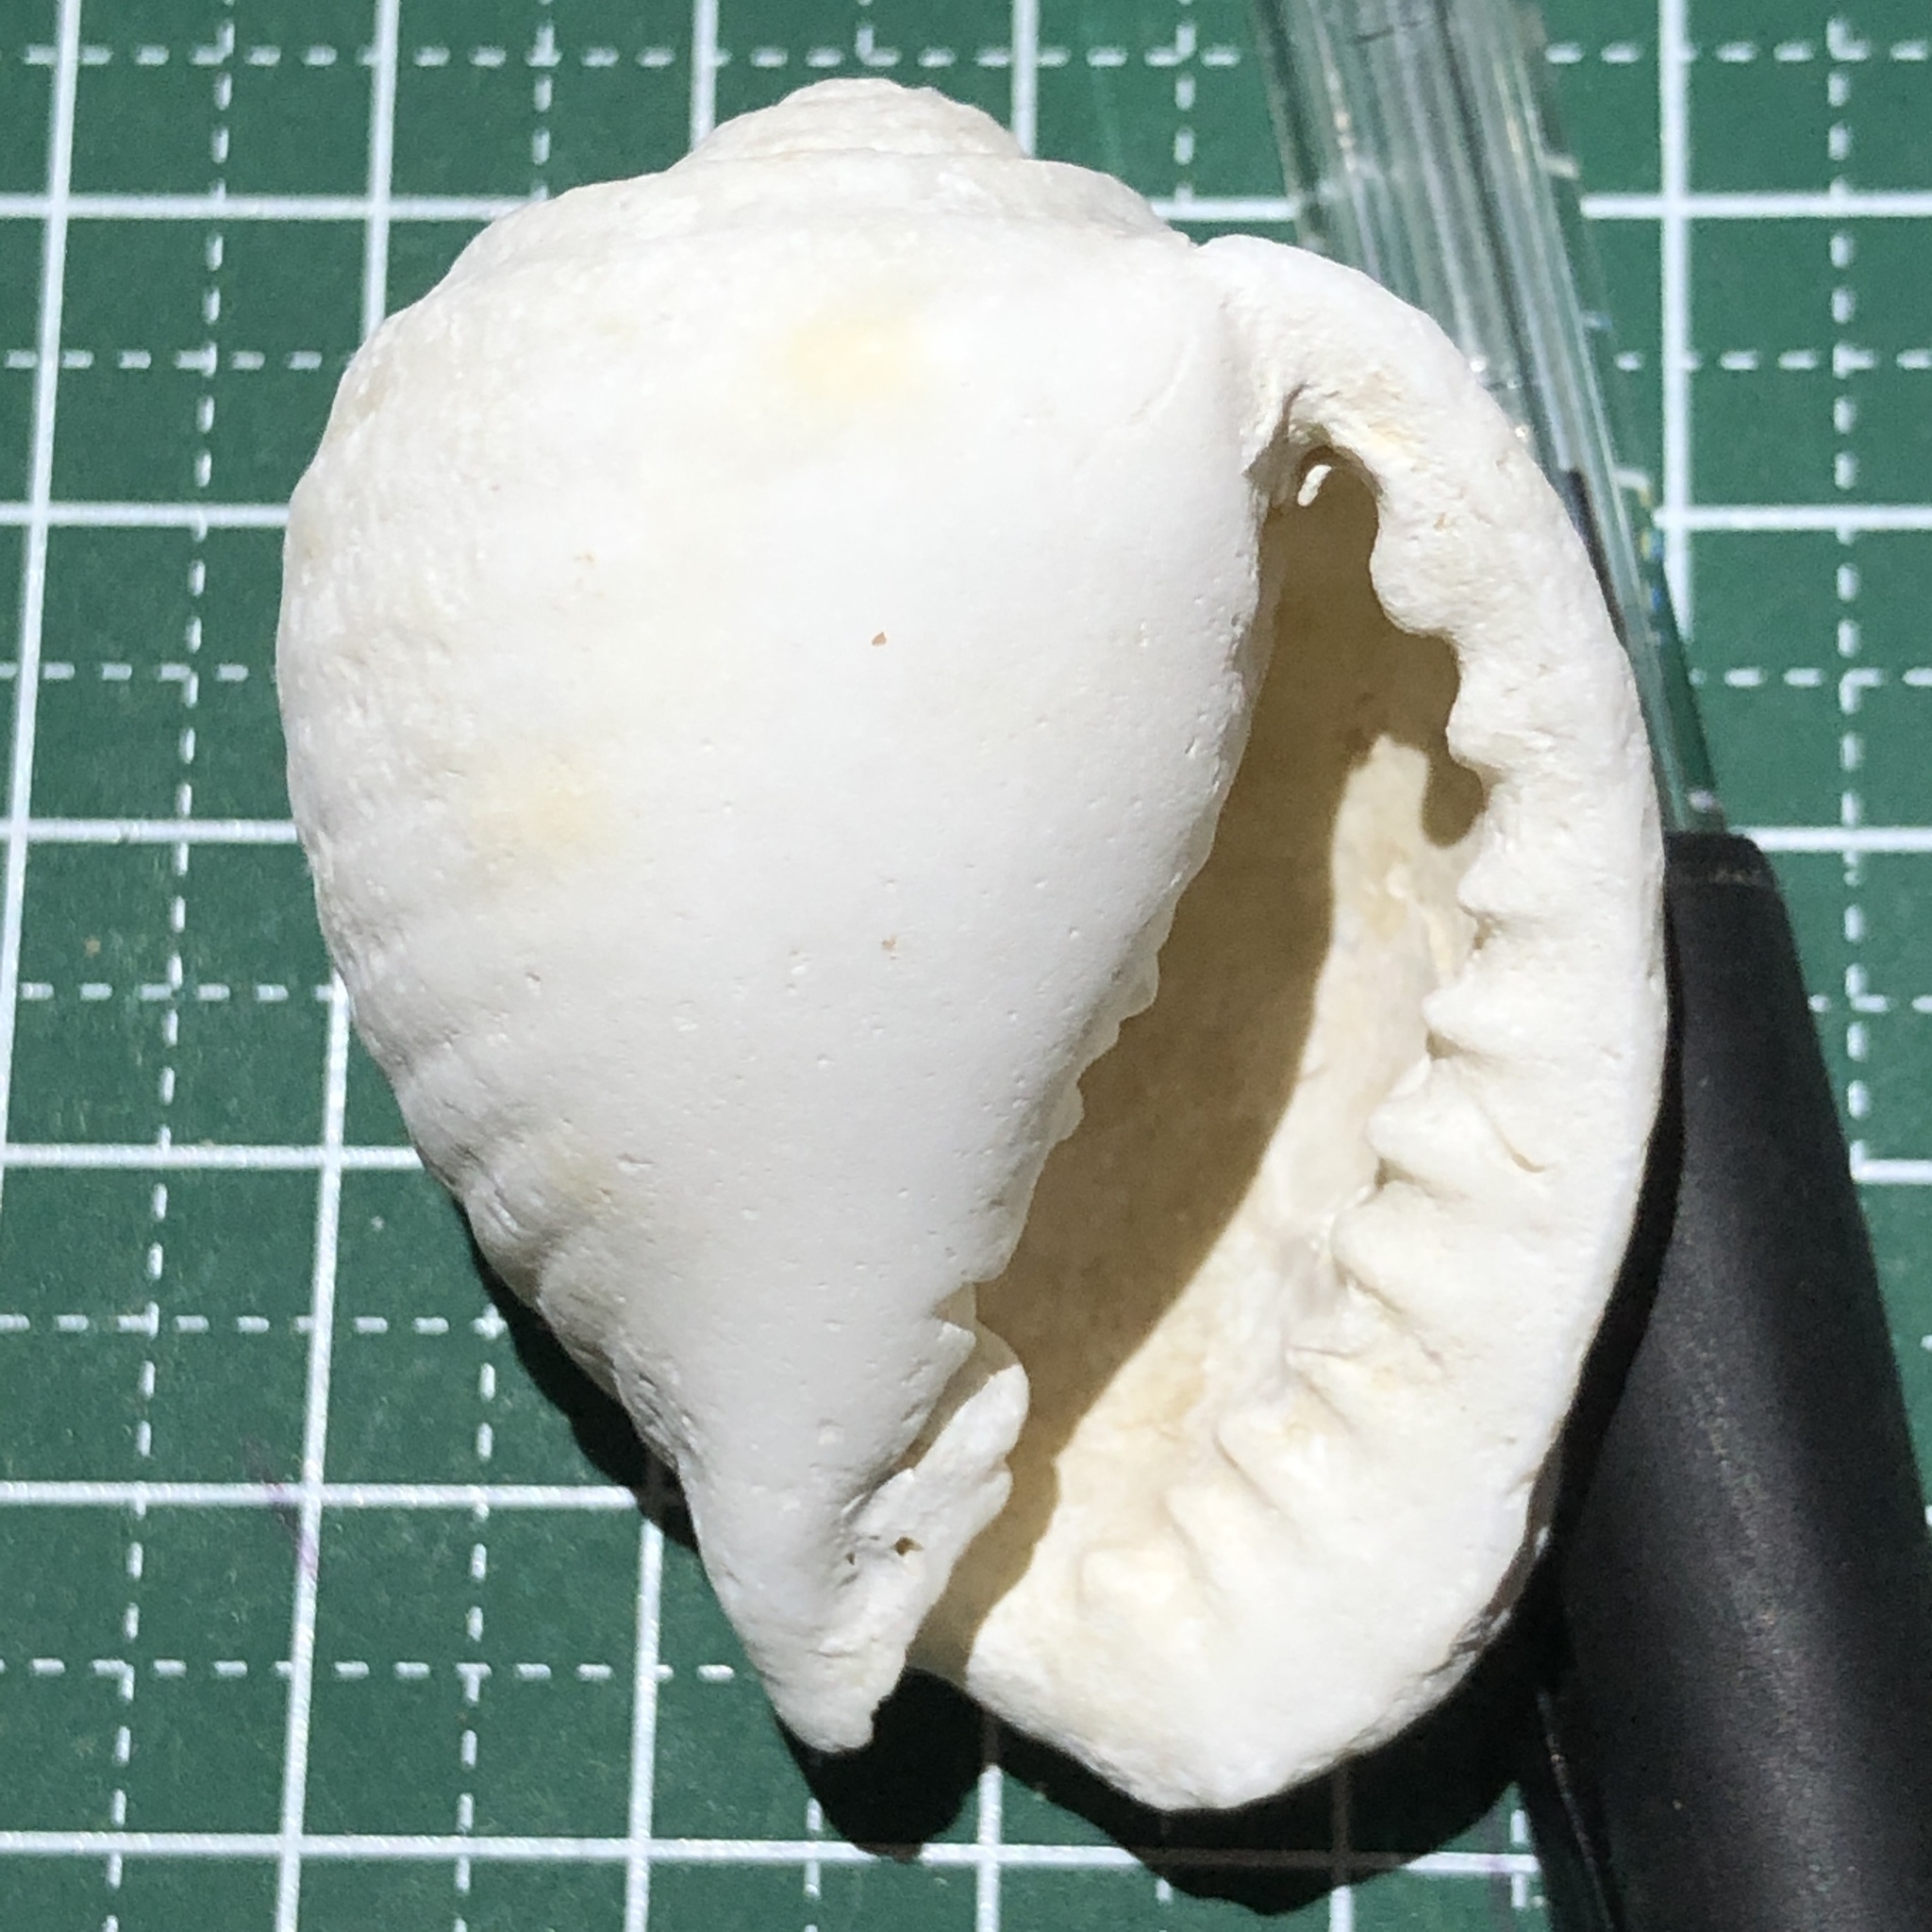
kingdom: Animalia
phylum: Mollusca
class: Gastropoda
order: Littorinimorpha
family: Tonnidae
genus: Malea
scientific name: Malea pomum
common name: Pacific grinning tun
